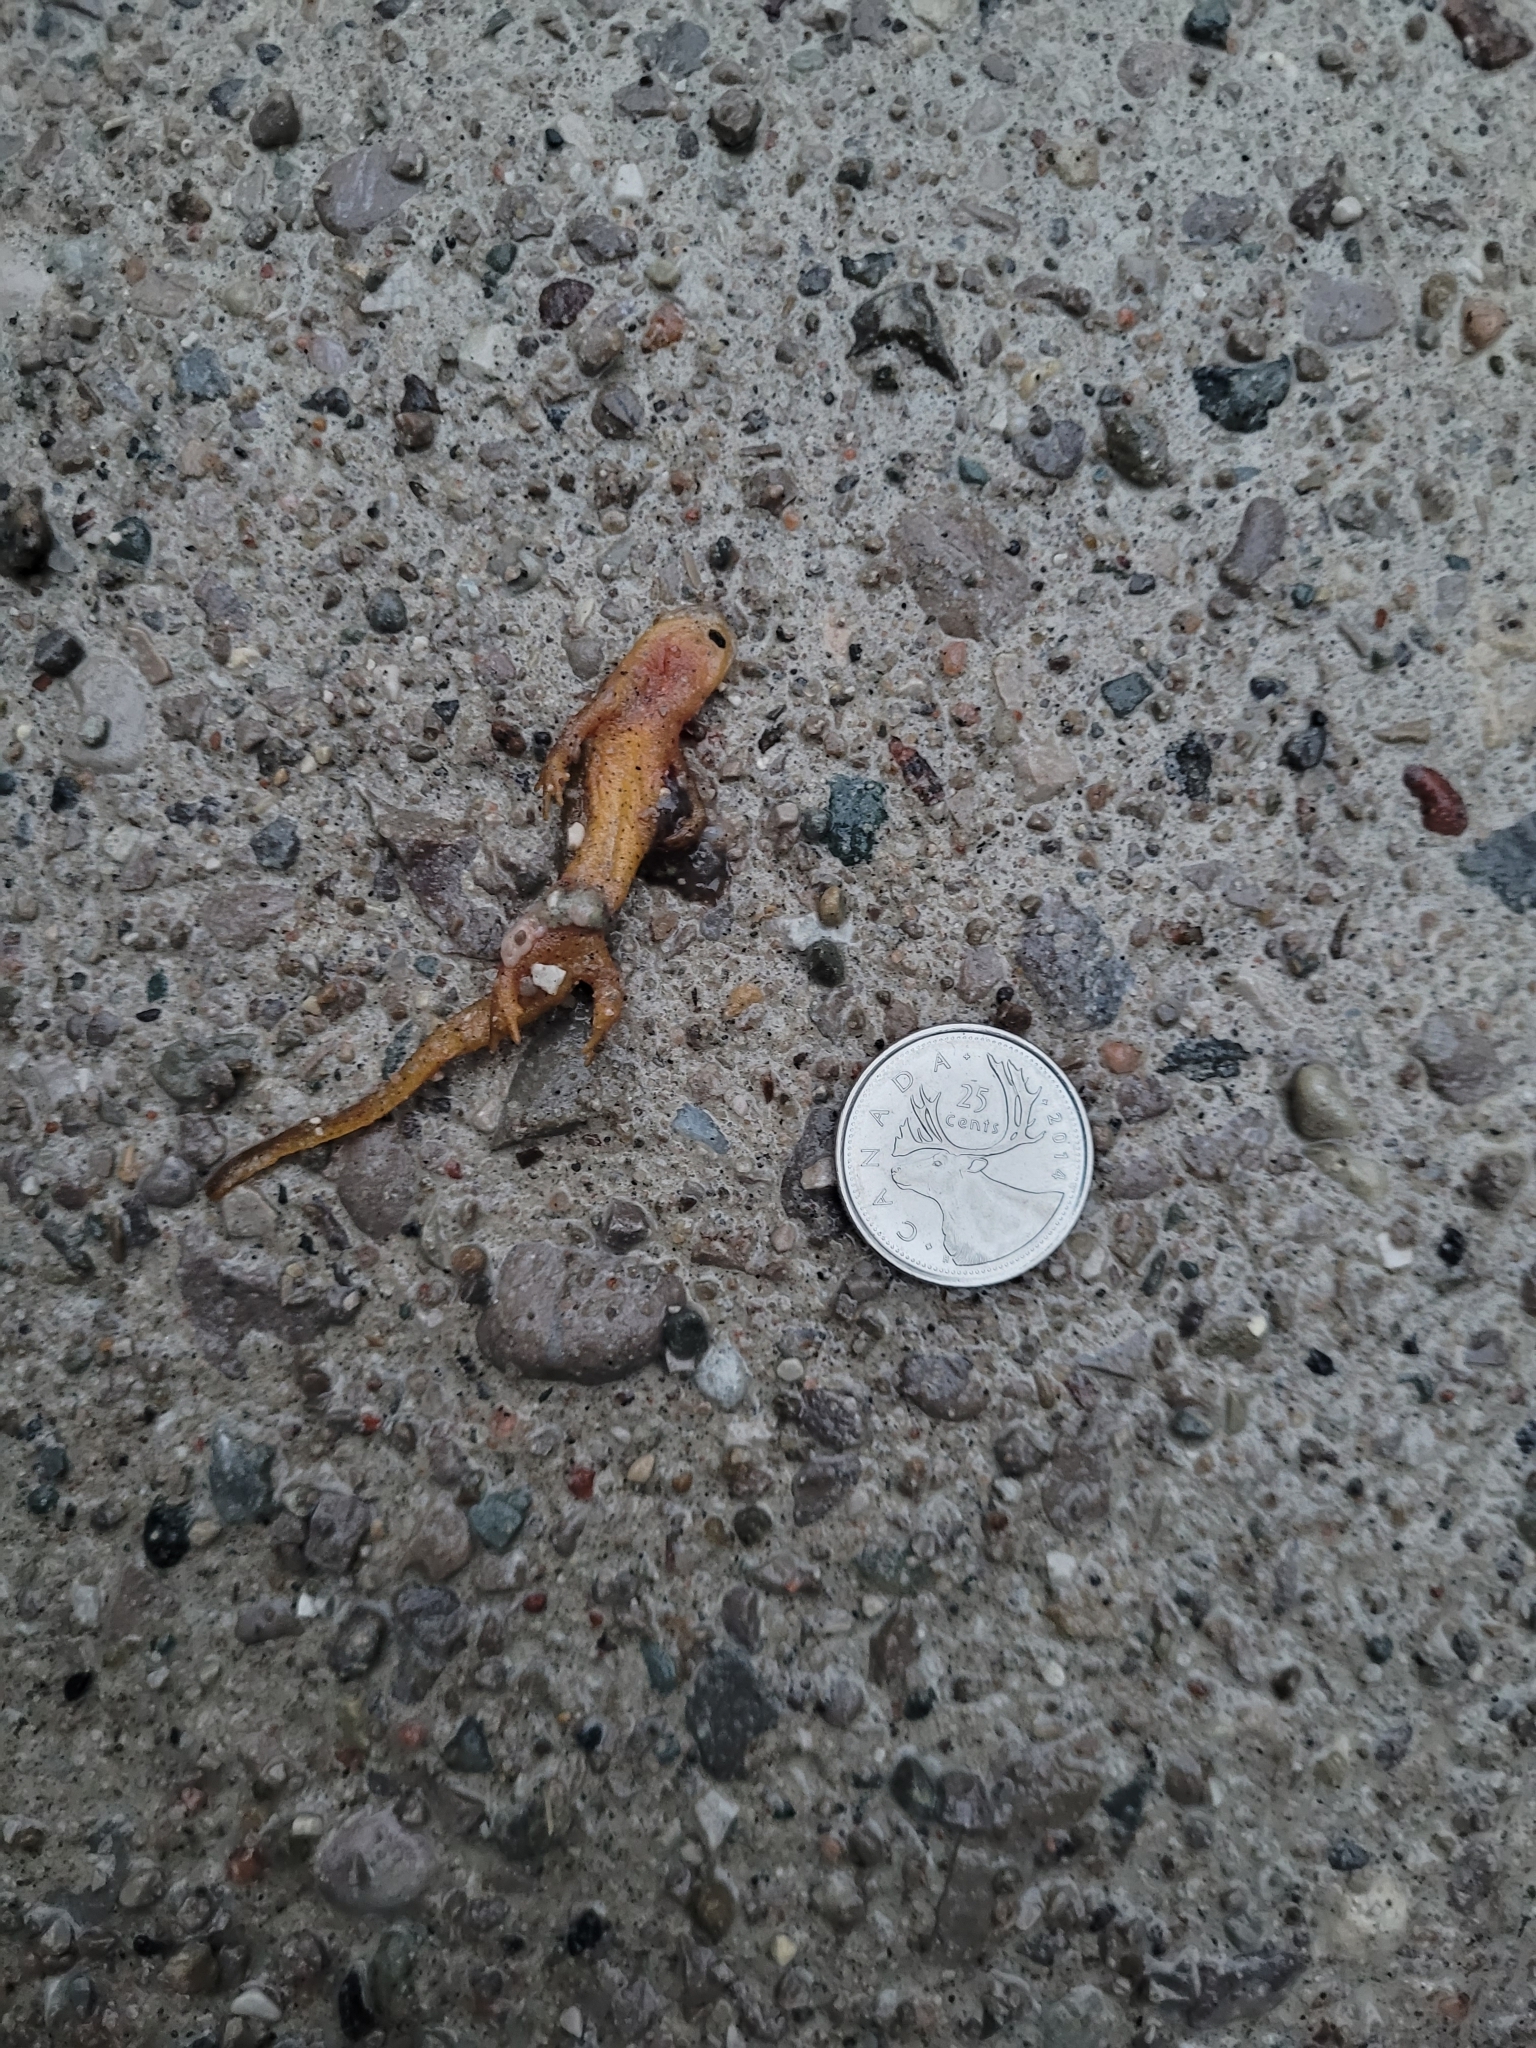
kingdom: Animalia
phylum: Chordata
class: Amphibia
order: Caudata
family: Salamandridae
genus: Notophthalmus
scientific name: Notophthalmus viridescens
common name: Eastern newt
